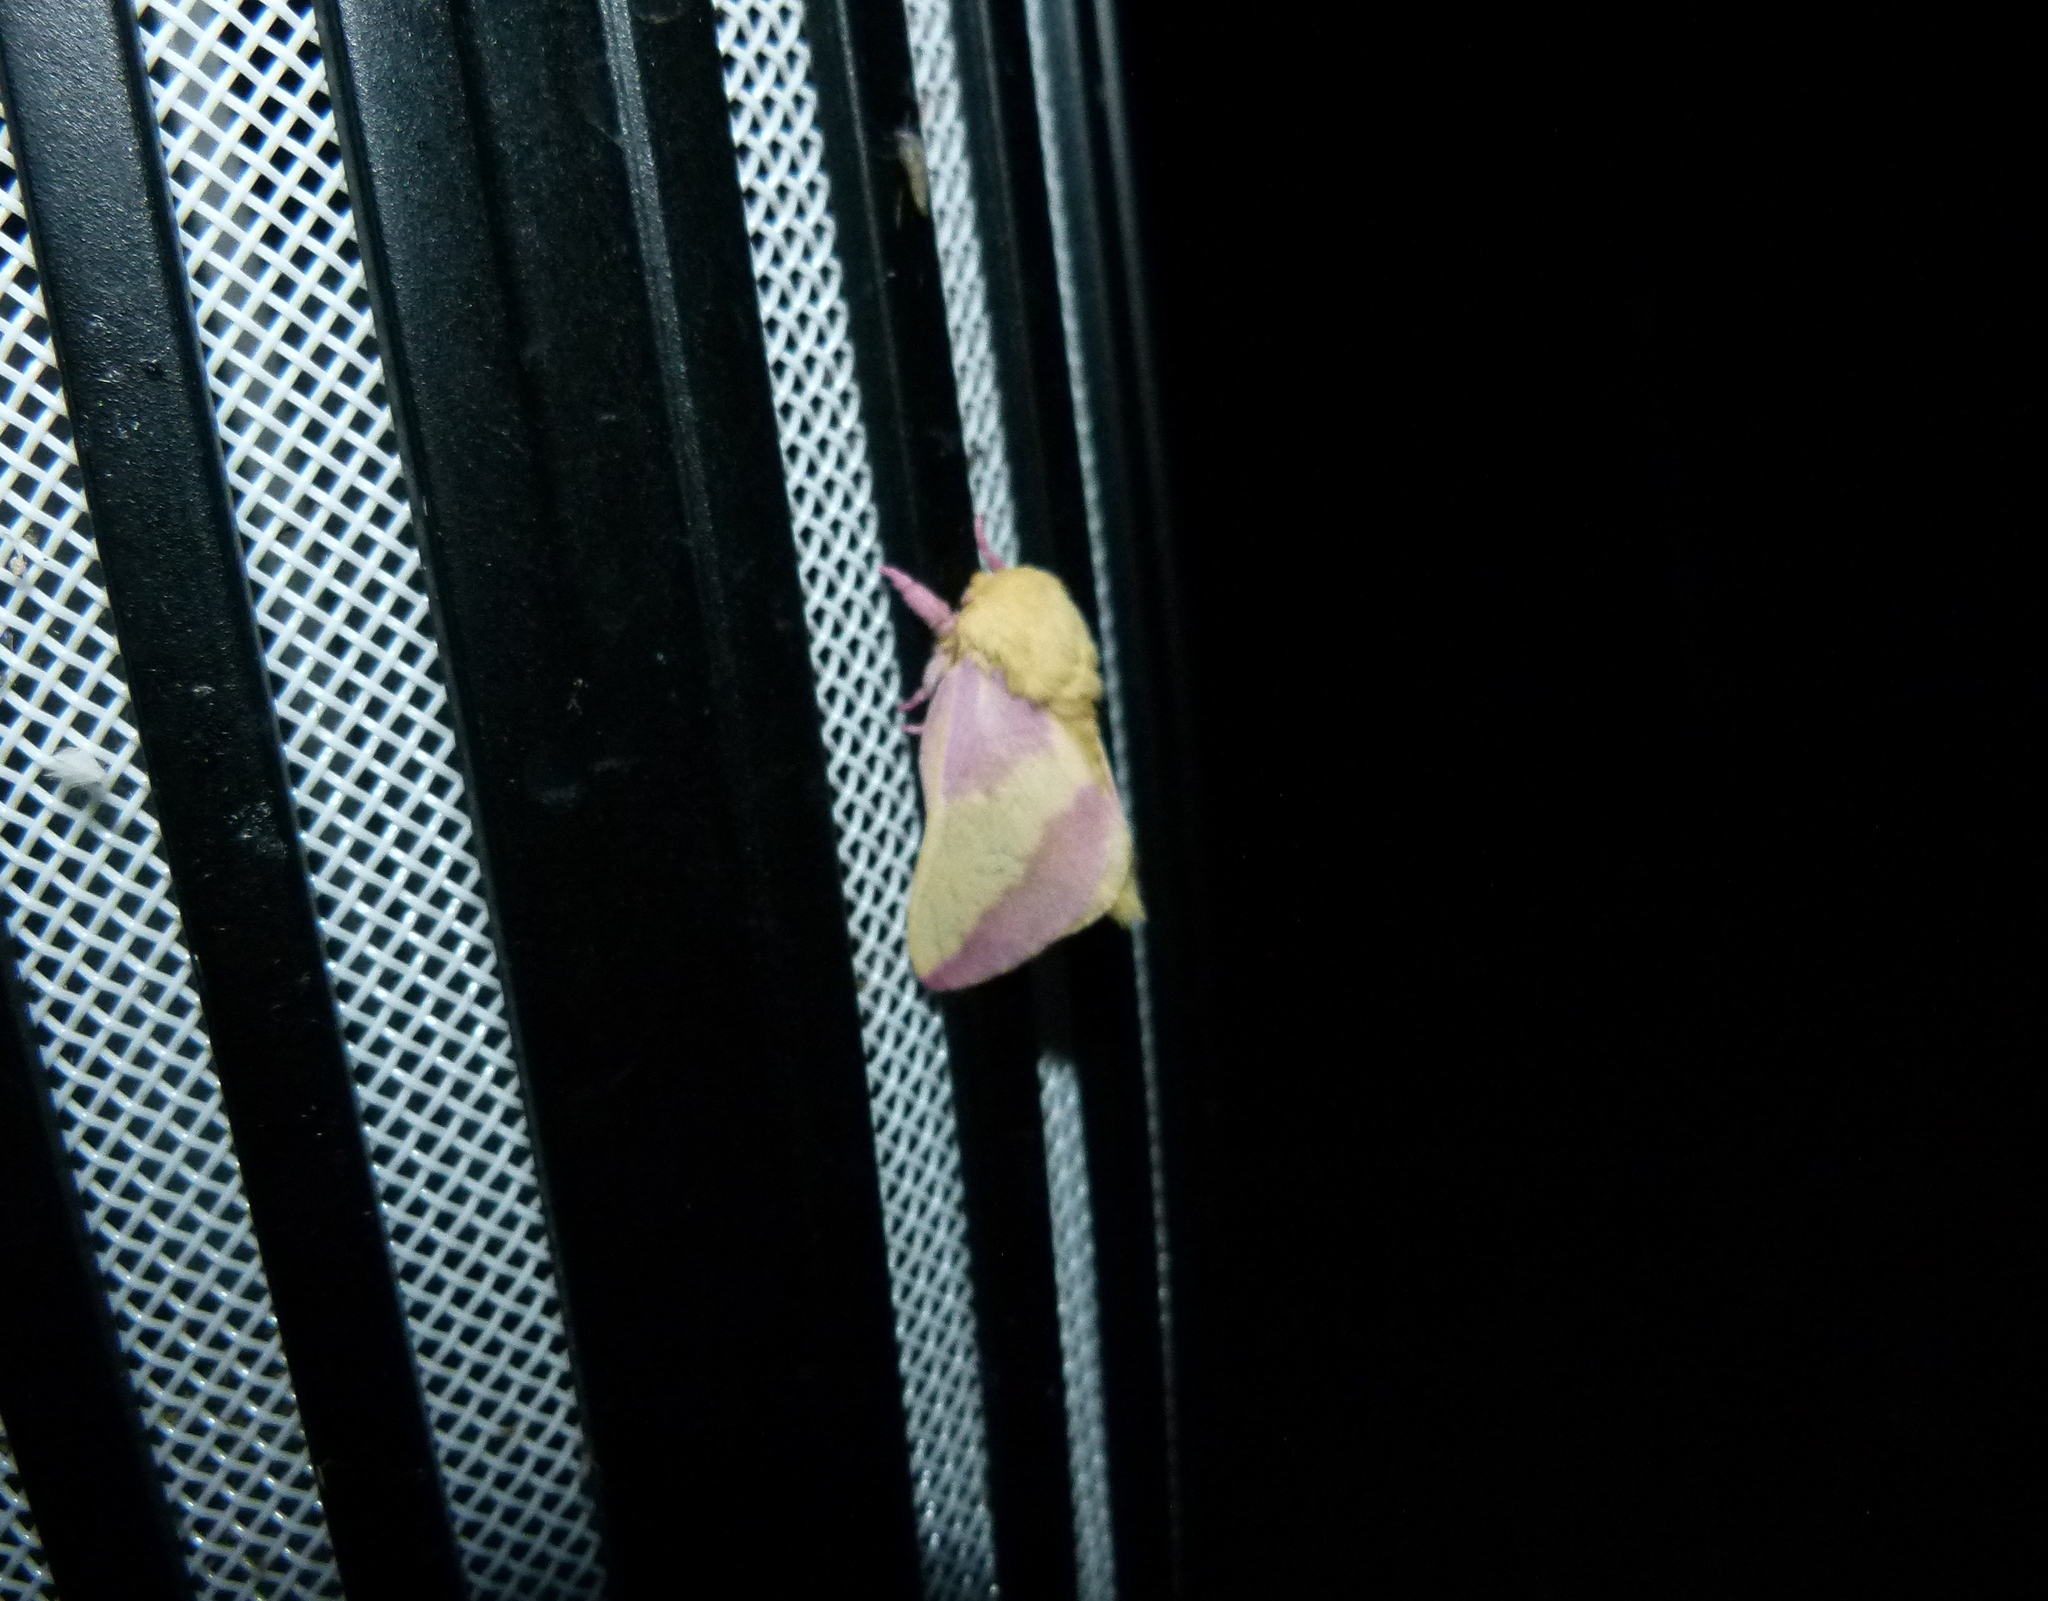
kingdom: Animalia
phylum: Arthropoda
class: Insecta
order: Lepidoptera
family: Saturniidae
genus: Dryocampa
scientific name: Dryocampa rubicunda
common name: Rosy maple moth
